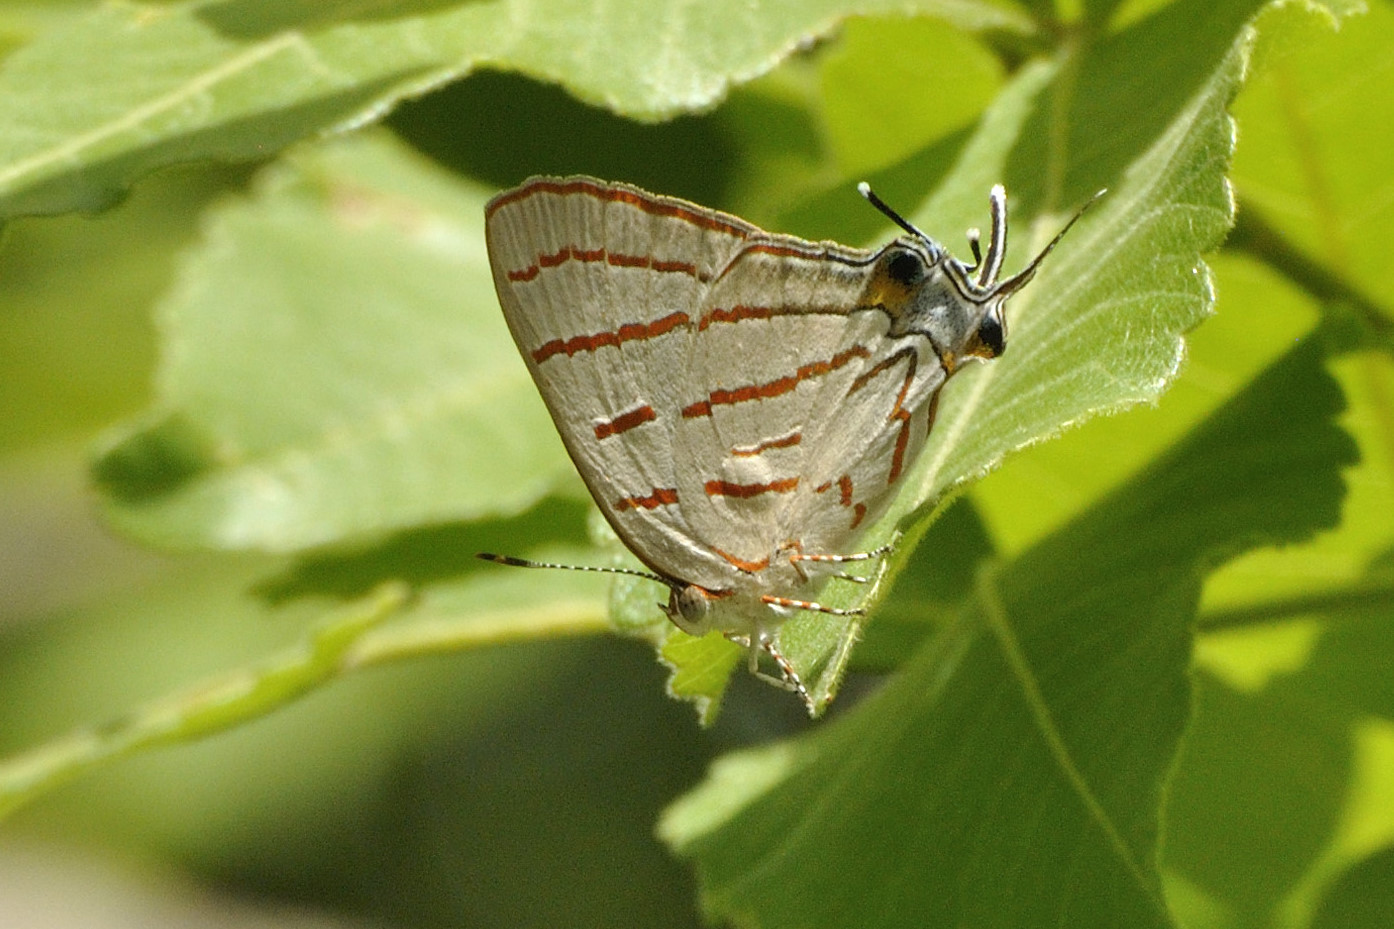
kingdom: Animalia
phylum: Arthropoda
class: Insecta
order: Lepidoptera
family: Lycaenidae
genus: Hemiolaus
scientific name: Hemiolaus caeculus
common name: Azure hairstreak
